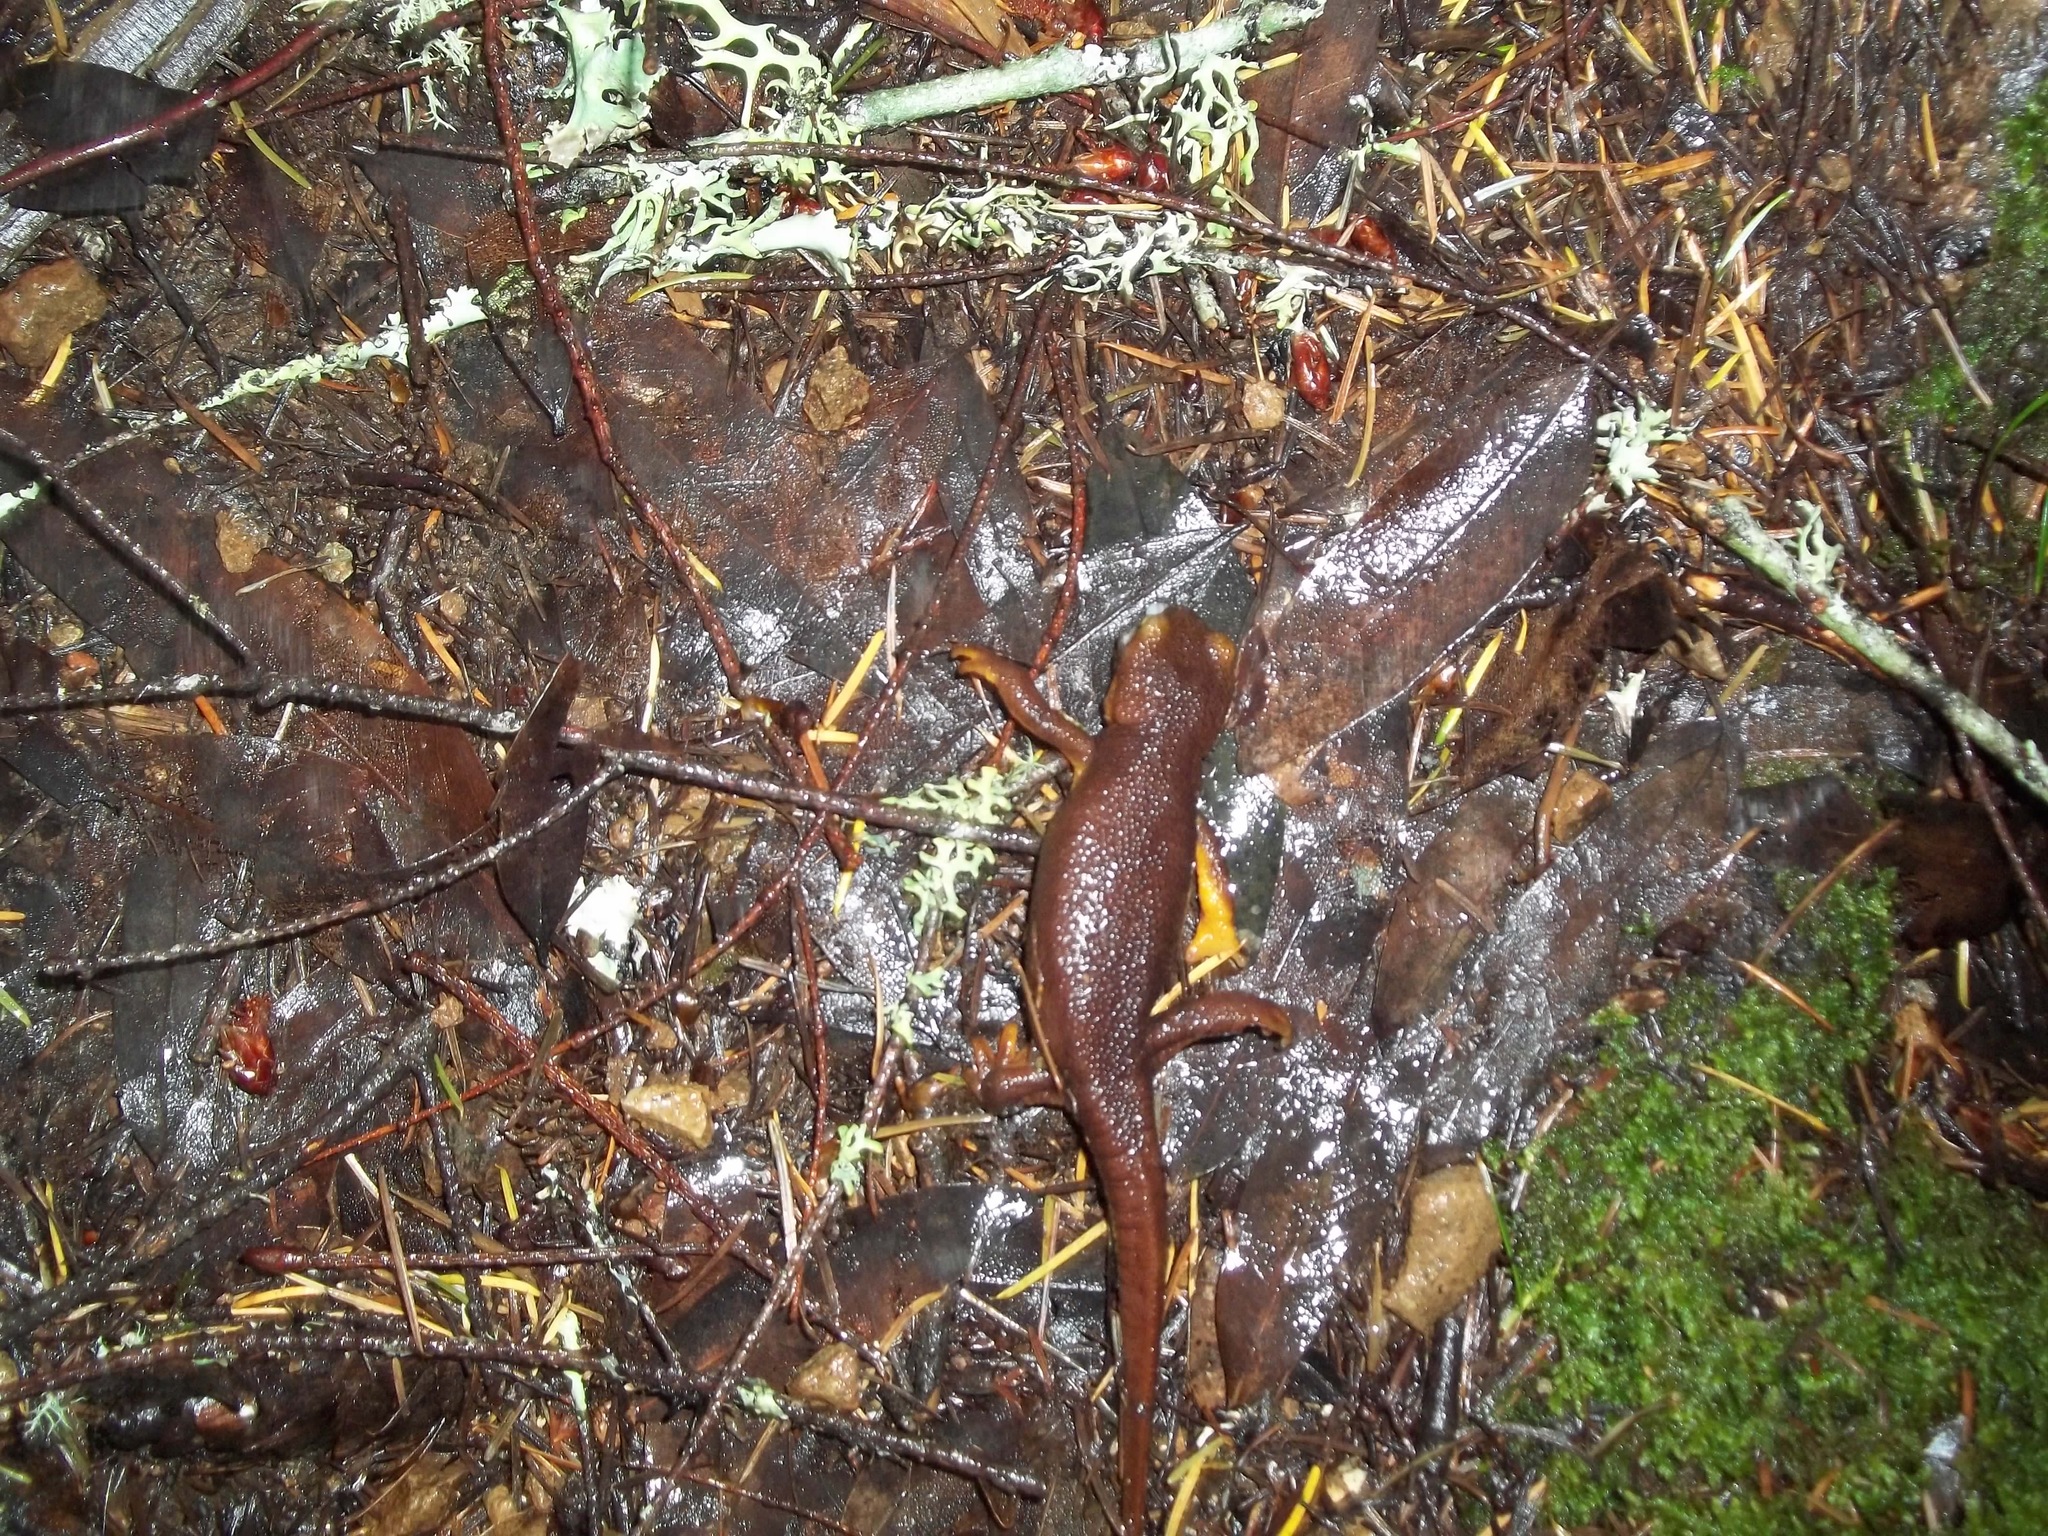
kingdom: Animalia
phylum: Chordata
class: Amphibia
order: Caudata
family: Salamandridae
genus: Taricha
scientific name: Taricha torosa
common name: California newt
